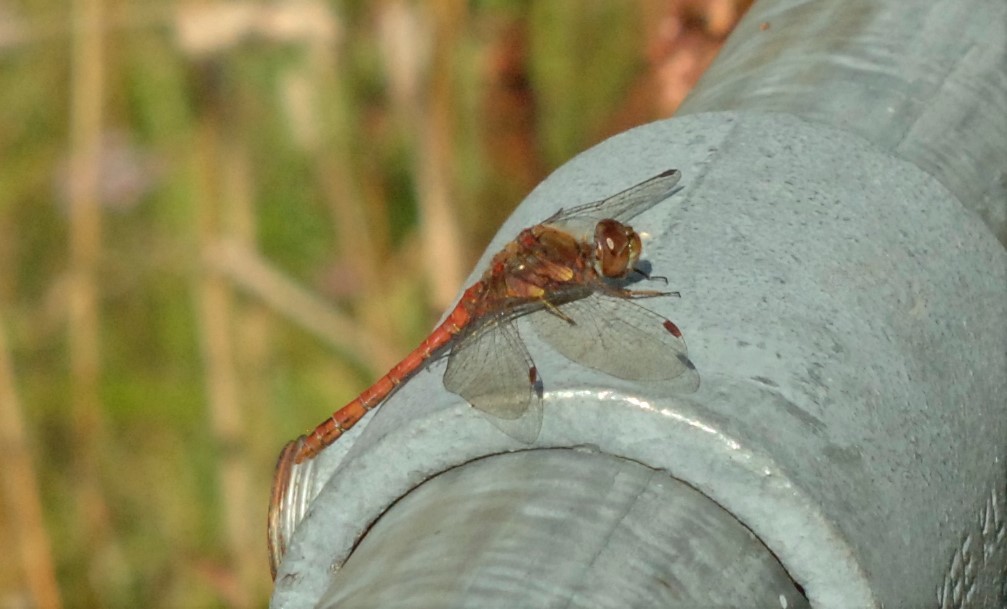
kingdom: Animalia
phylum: Arthropoda
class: Insecta
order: Odonata
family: Libellulidae
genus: Sympetrum
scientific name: Sympetrum striolatum
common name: Common darter
